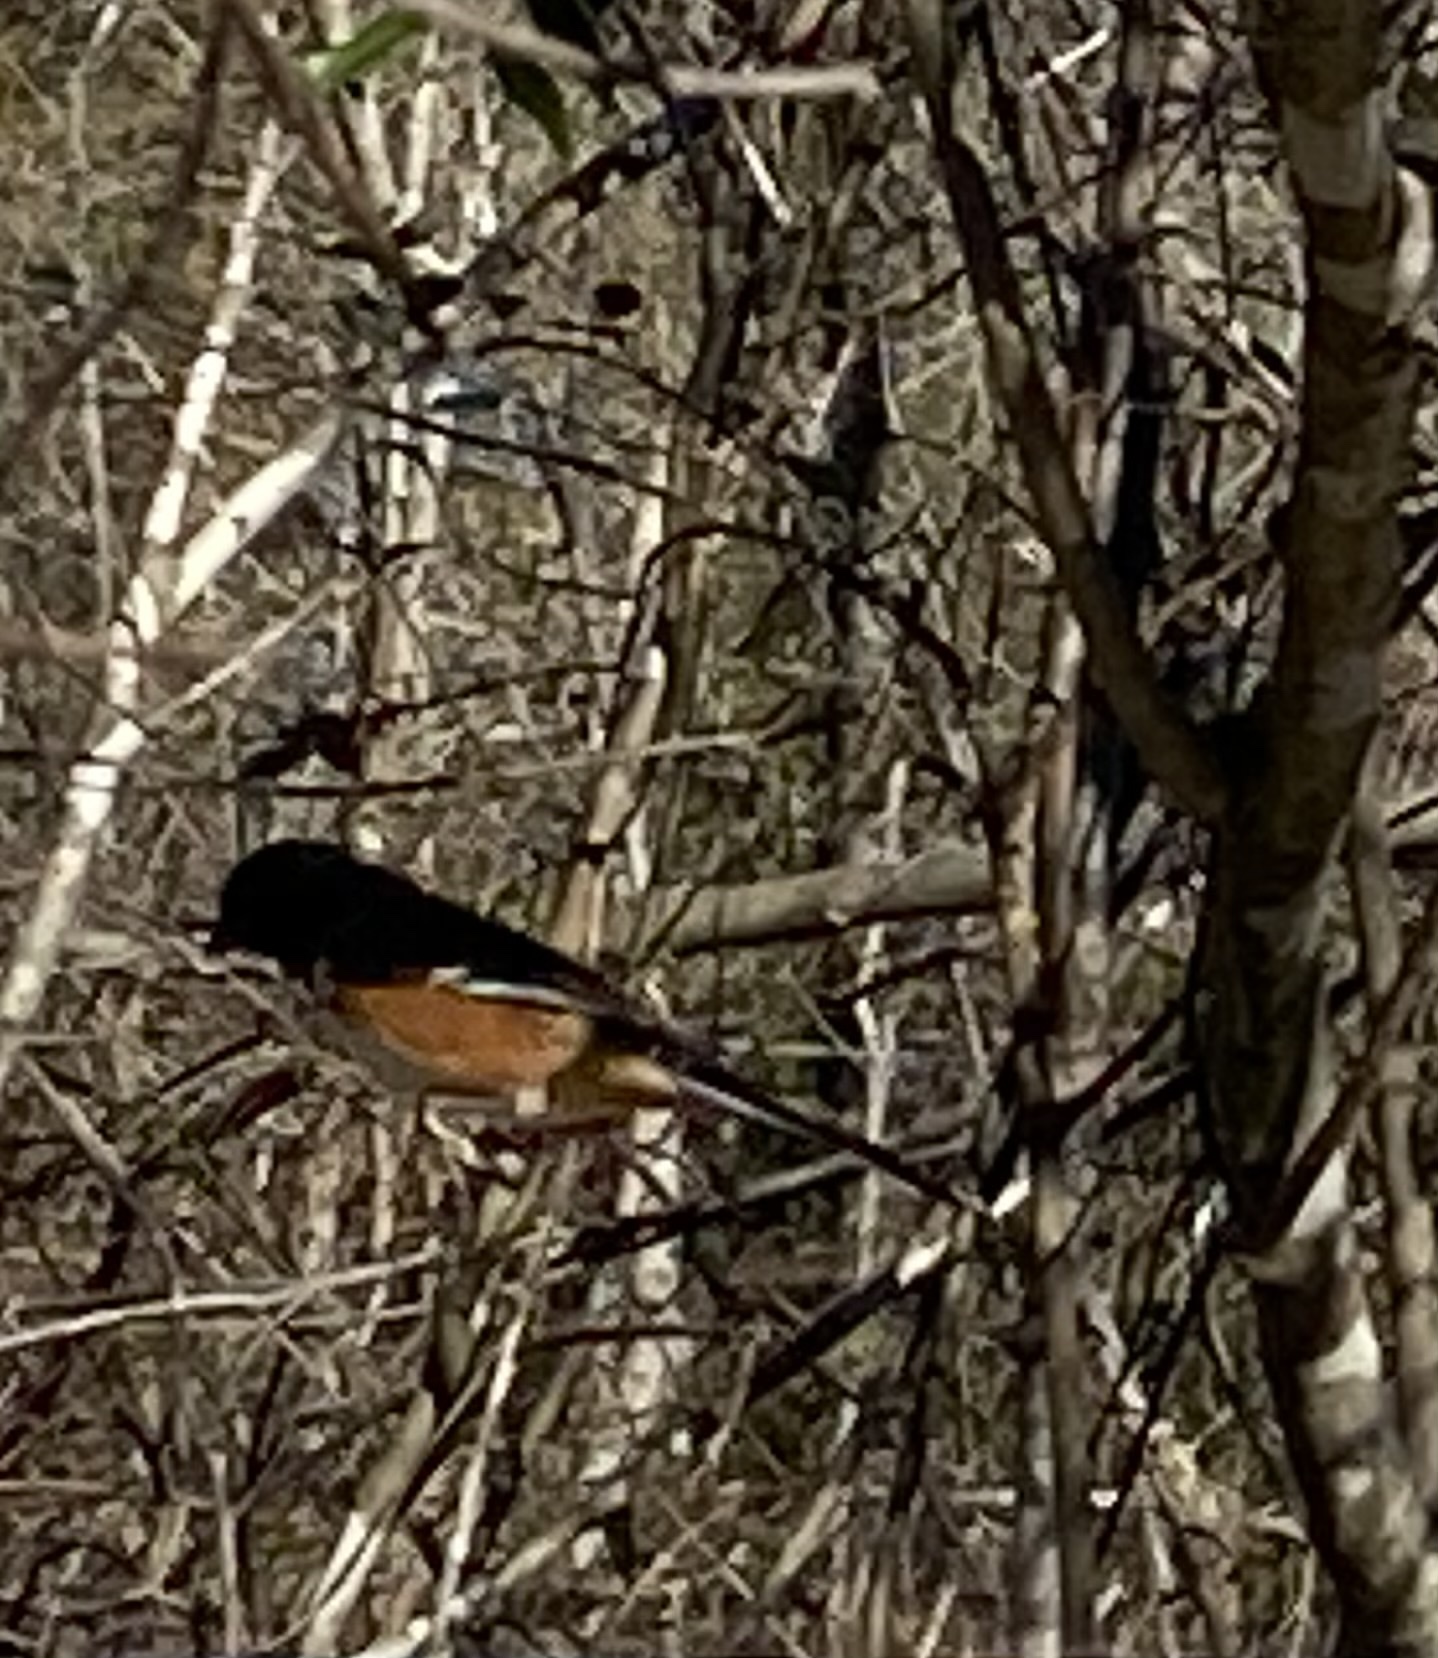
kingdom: Animalia
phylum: Chordata
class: Aves
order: Passeriformes
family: Passerellidae
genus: Pipilo
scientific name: Pipilo erythrophthalmus
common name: Eastern towhee
